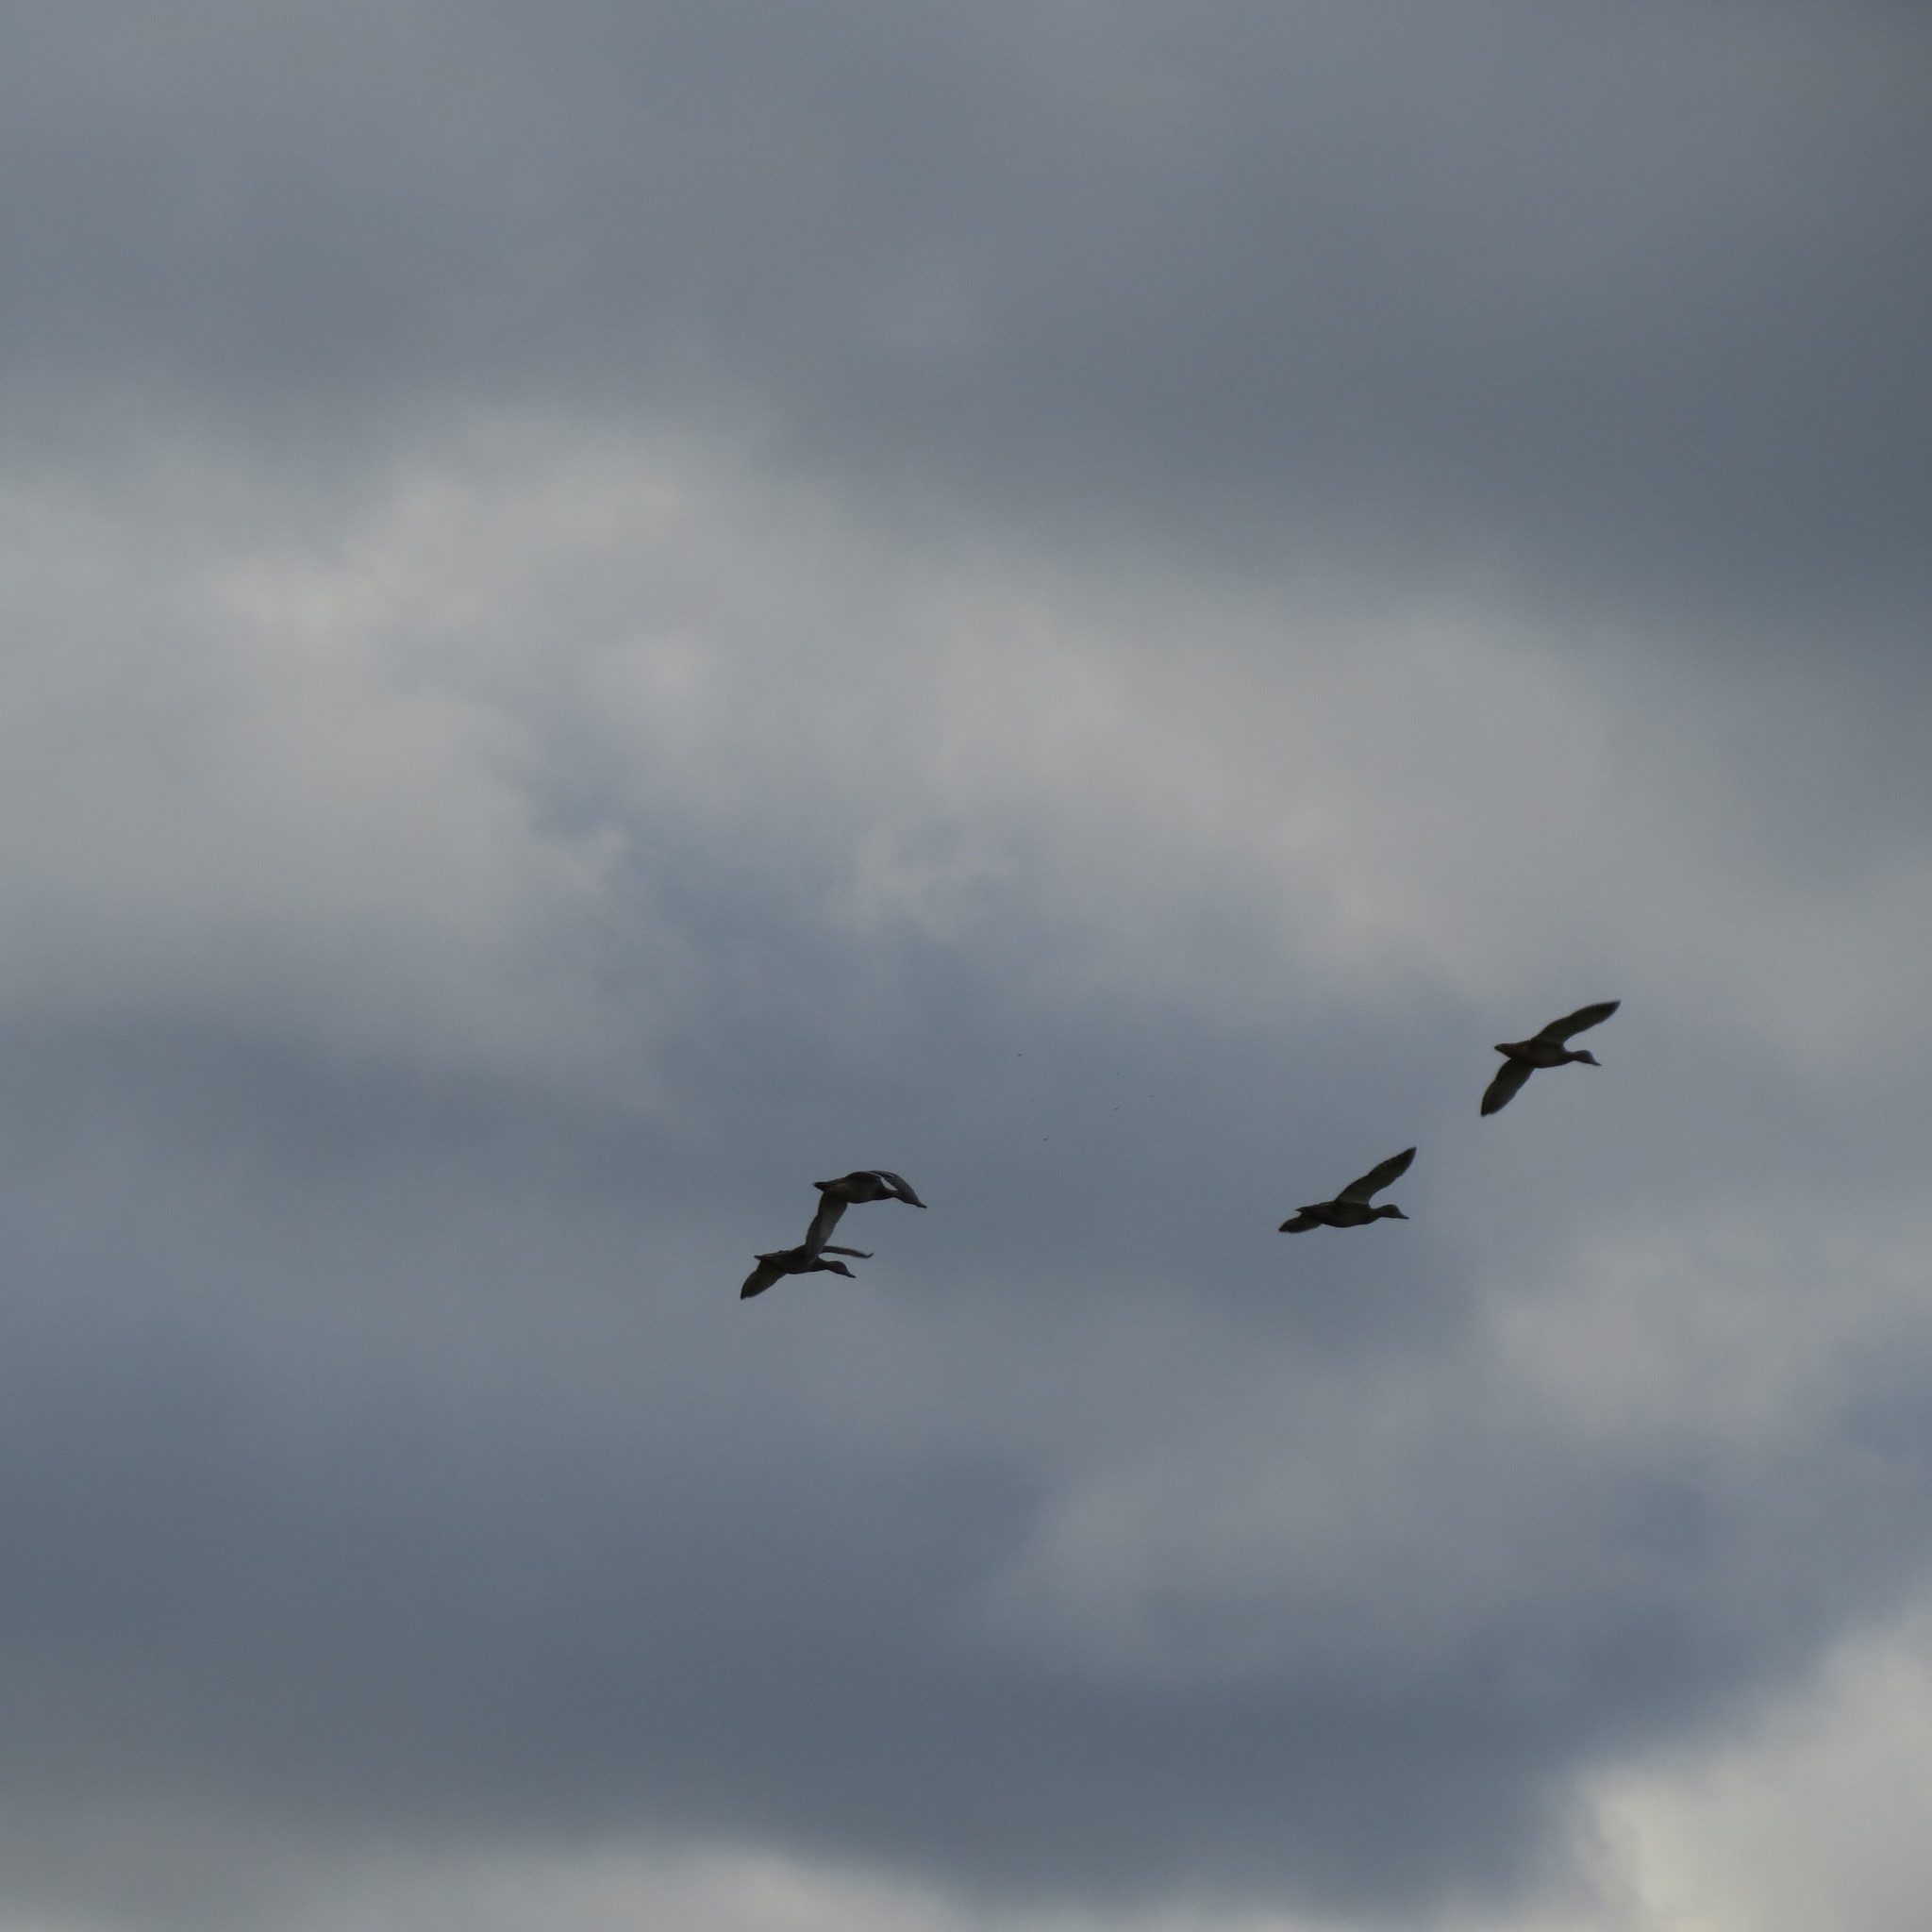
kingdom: Animalia
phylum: Chordata
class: Aves
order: Anseriformes
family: Anatidae
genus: Anas
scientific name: Anas platyrhynchos
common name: Mallard
